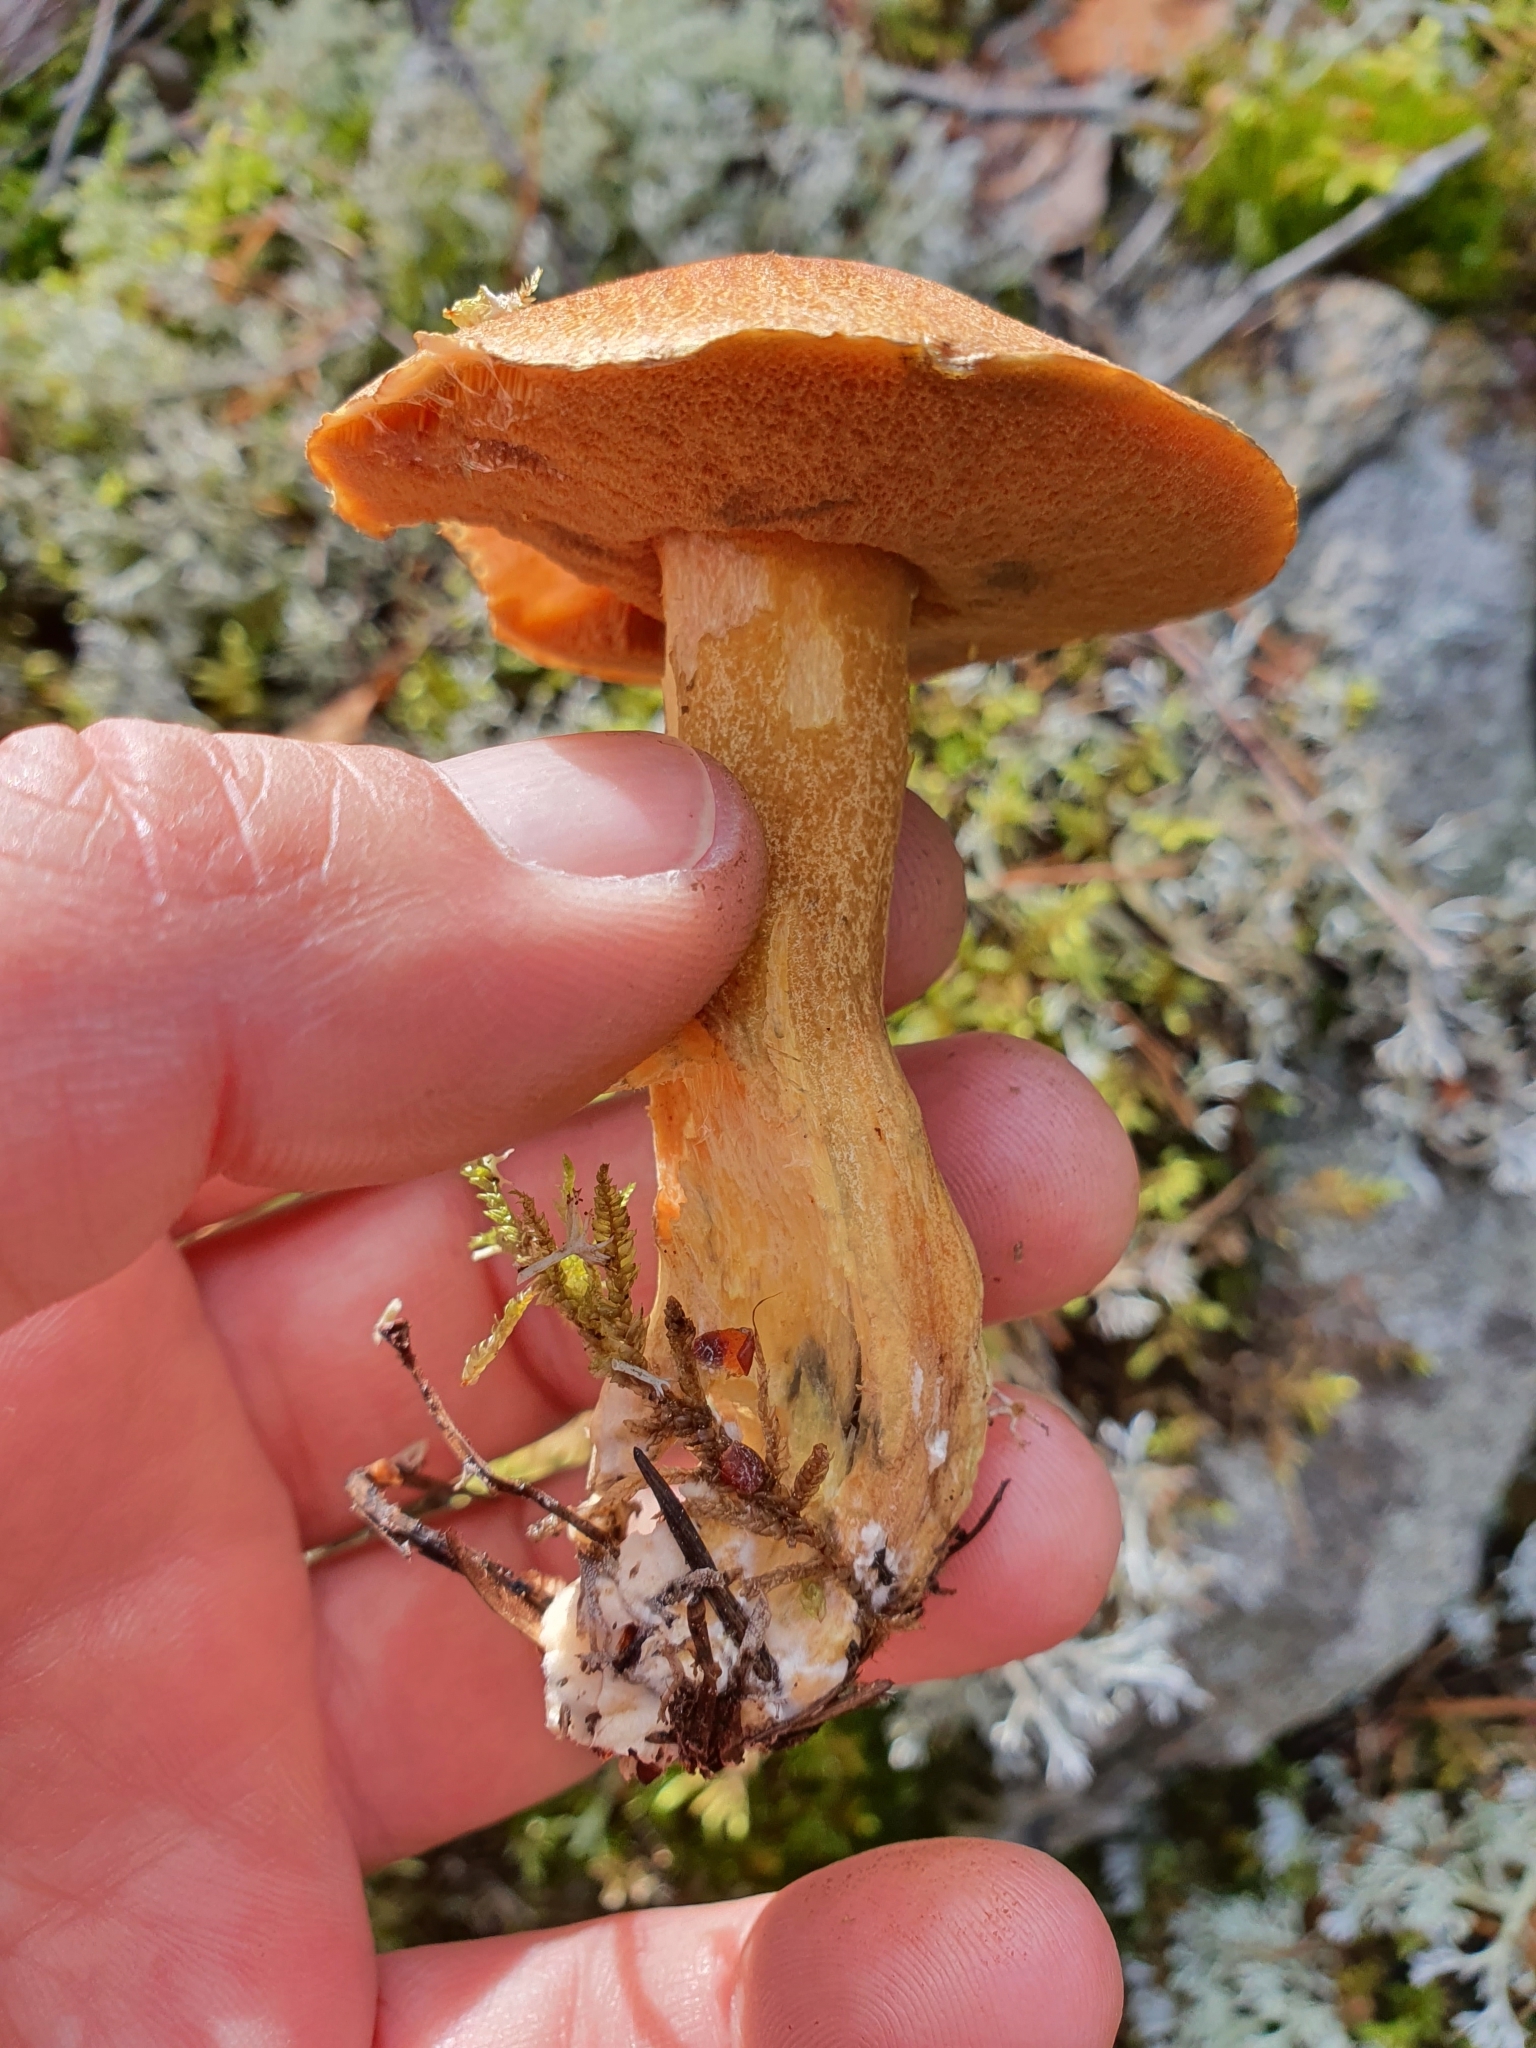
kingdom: Fungi
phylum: Basidiomycota
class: Agaricomycetes
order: Boletales
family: Suillaceae
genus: Suillus
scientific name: Suillus variegatus
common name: Velvet bolete
